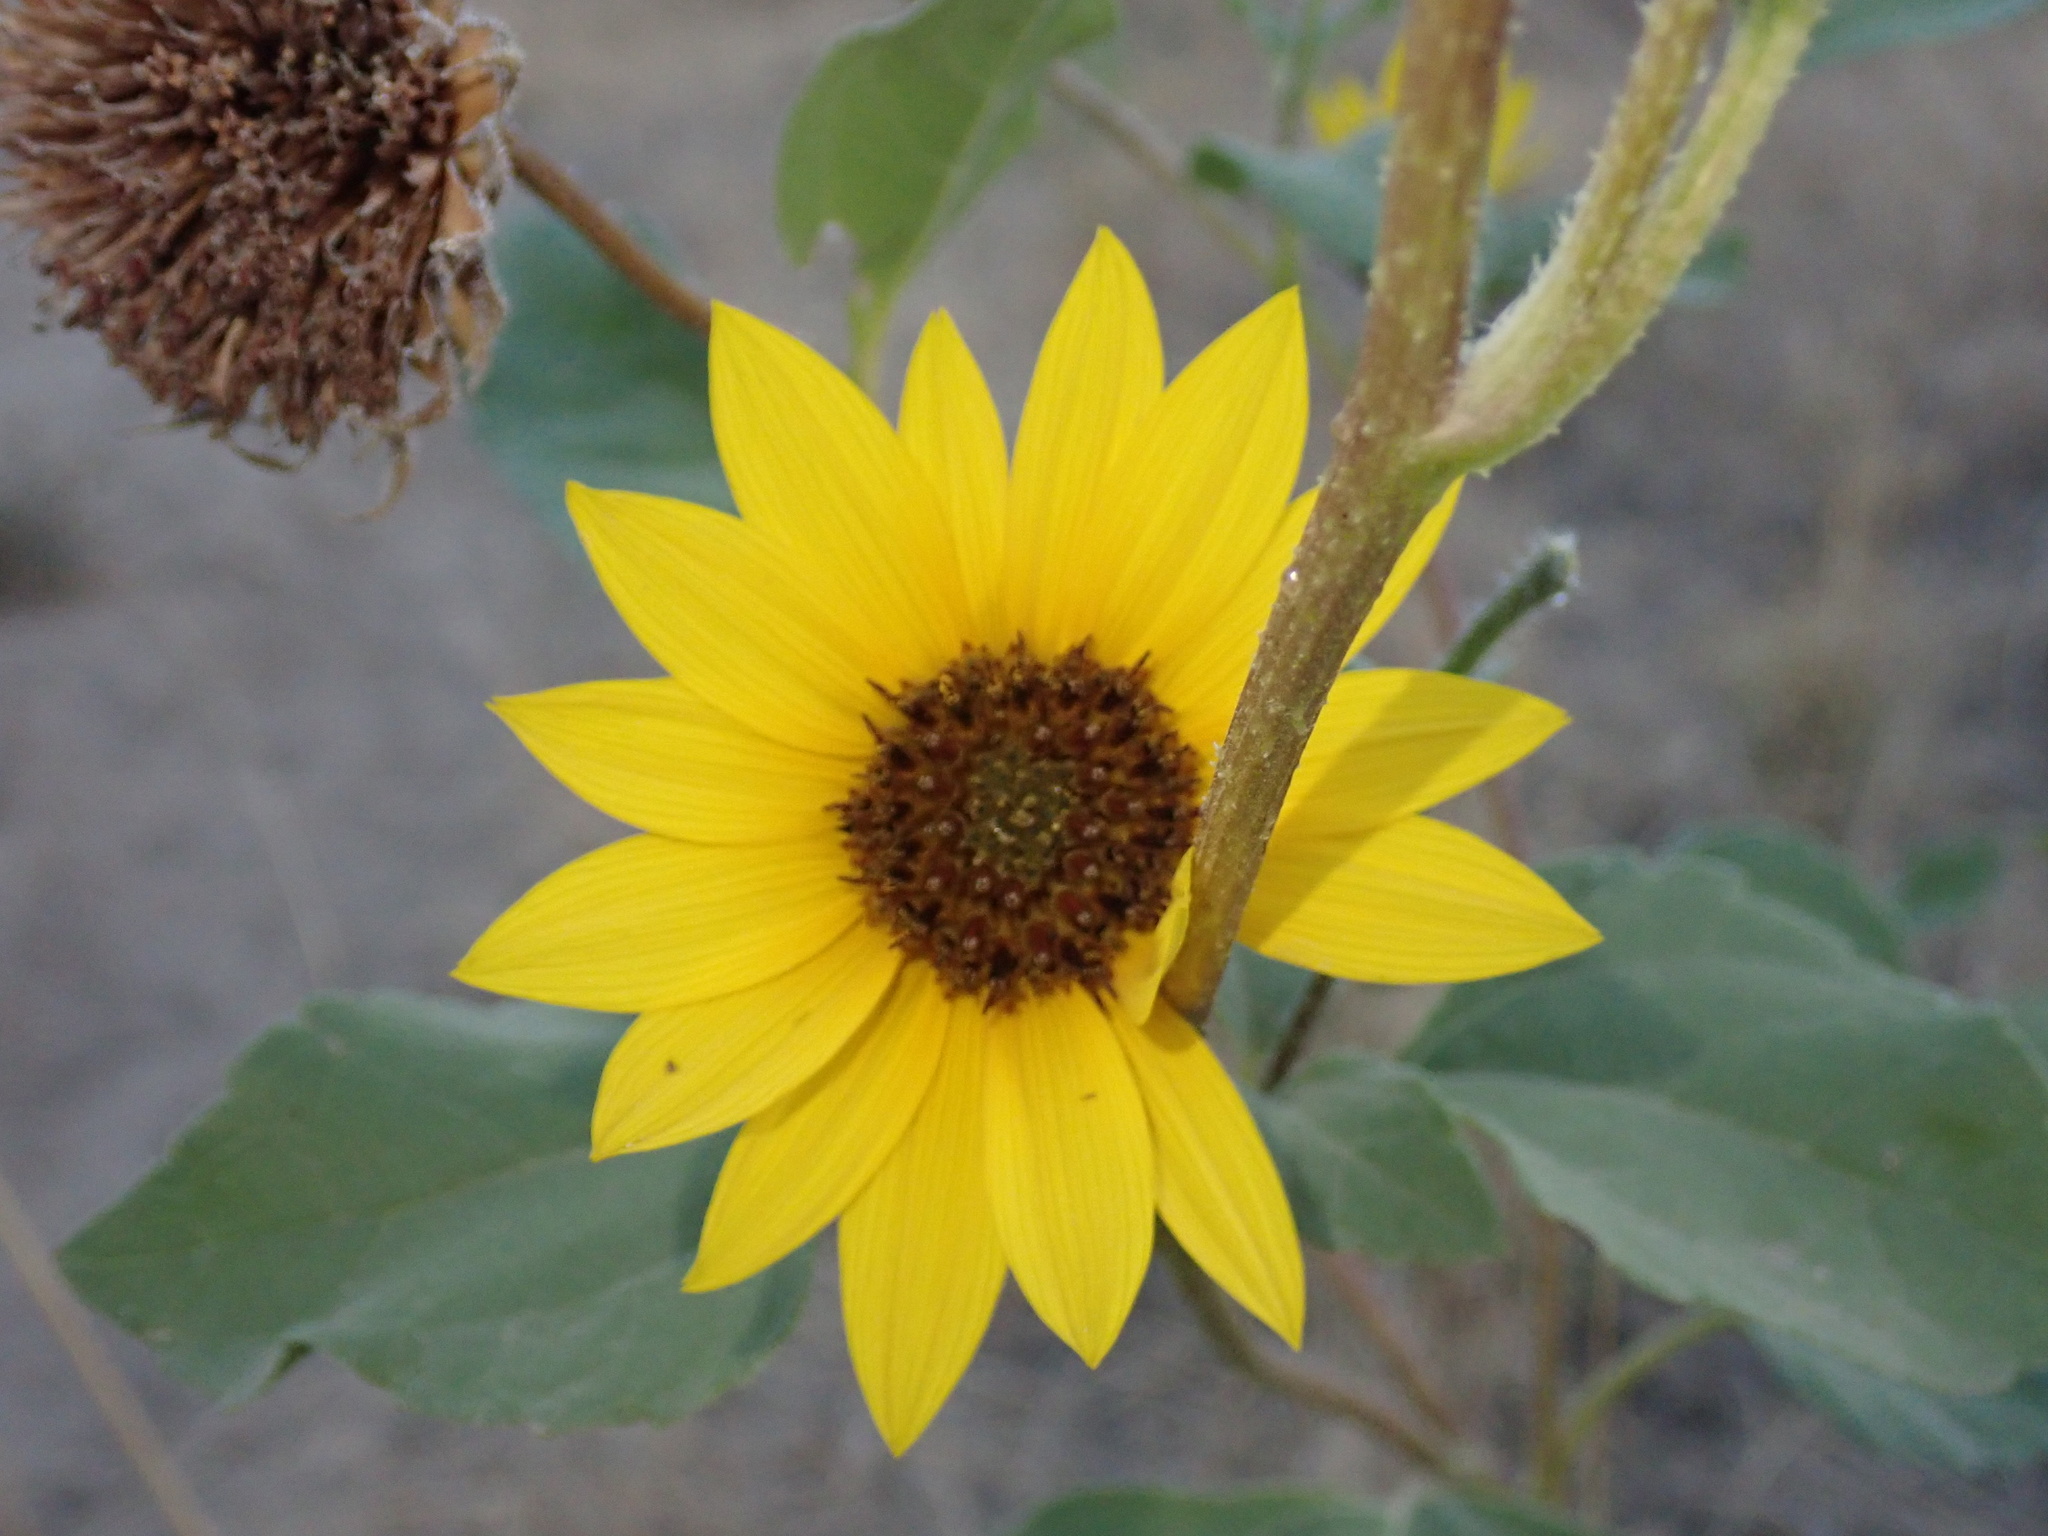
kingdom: Plantae
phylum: Tracheophyta
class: Magnoliopsida
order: Asterales
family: Asteraceae
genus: Helianthus
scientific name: Helianthus annuus
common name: Sunflower
